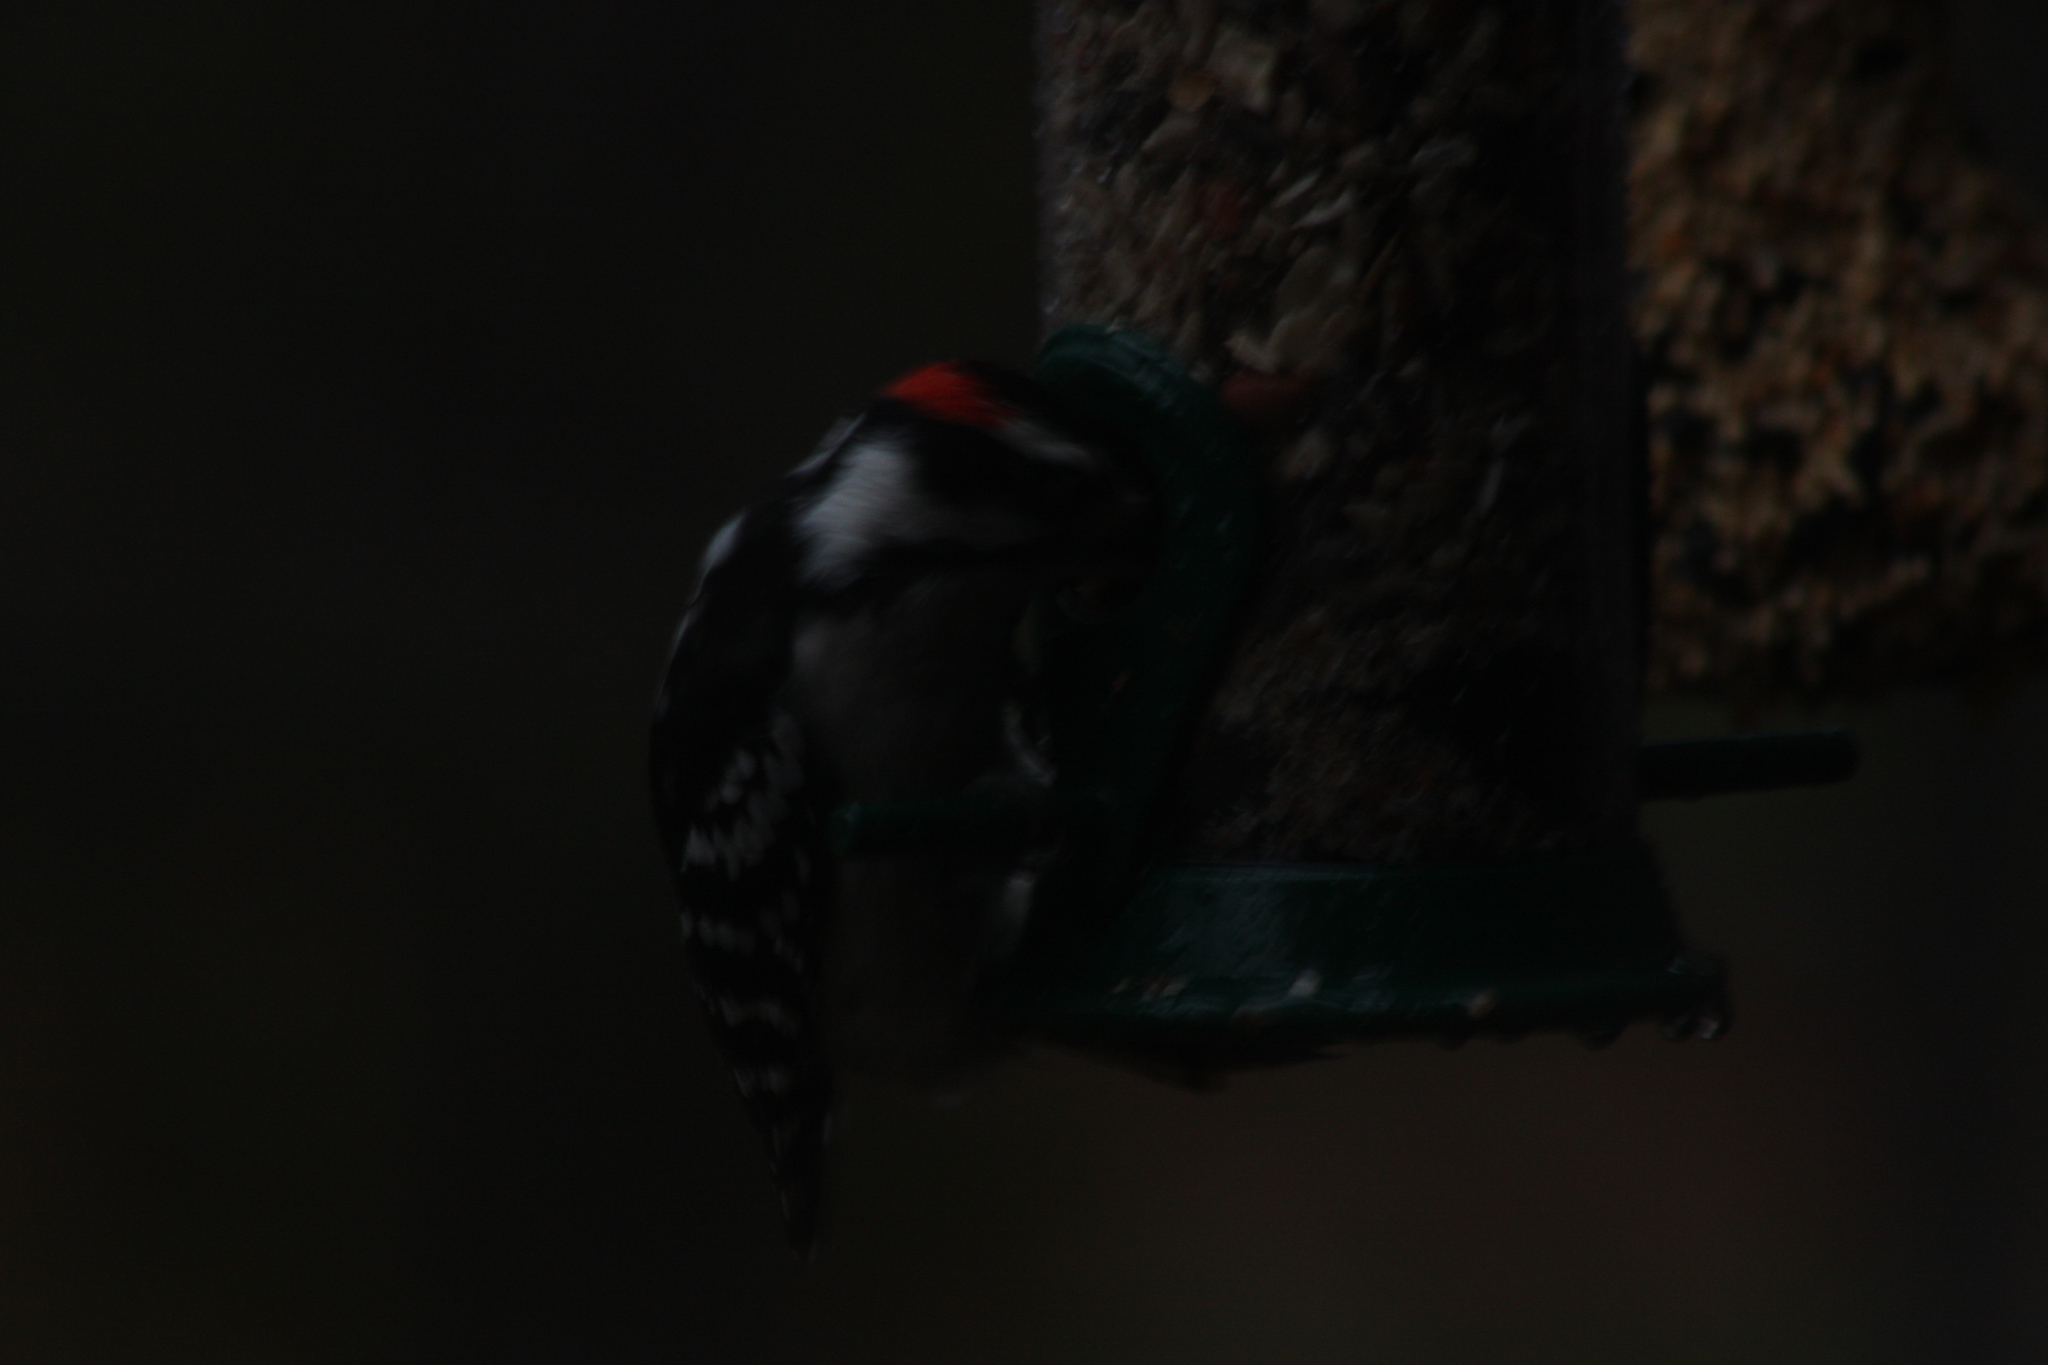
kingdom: Animalia
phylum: Chordata
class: Aves
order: Piciformes
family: Picidae
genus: Dryobates
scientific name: Dryobates pubescens
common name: Downy woodpecker
